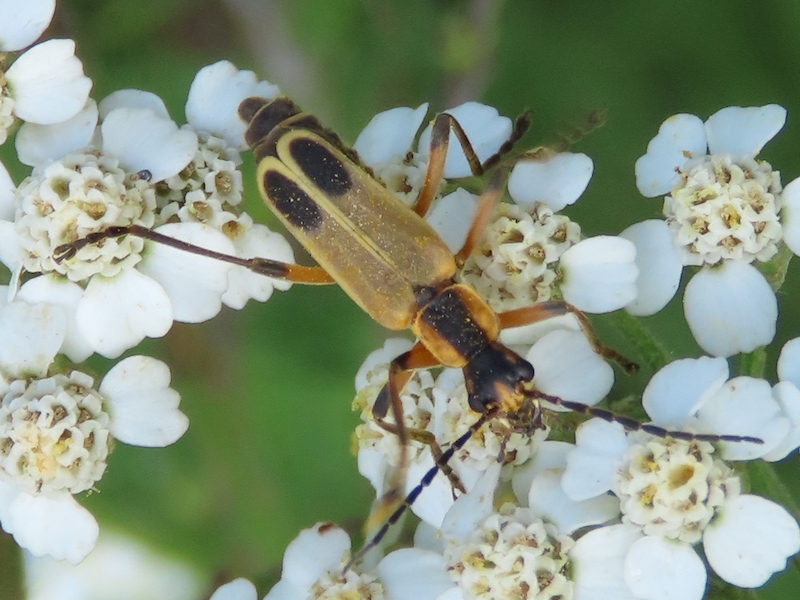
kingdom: Animalia
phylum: Arthropoda
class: Insecta
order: Coleoptera
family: Cantharidae
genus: Chauliognathus
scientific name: Chauliognathus marginatus
